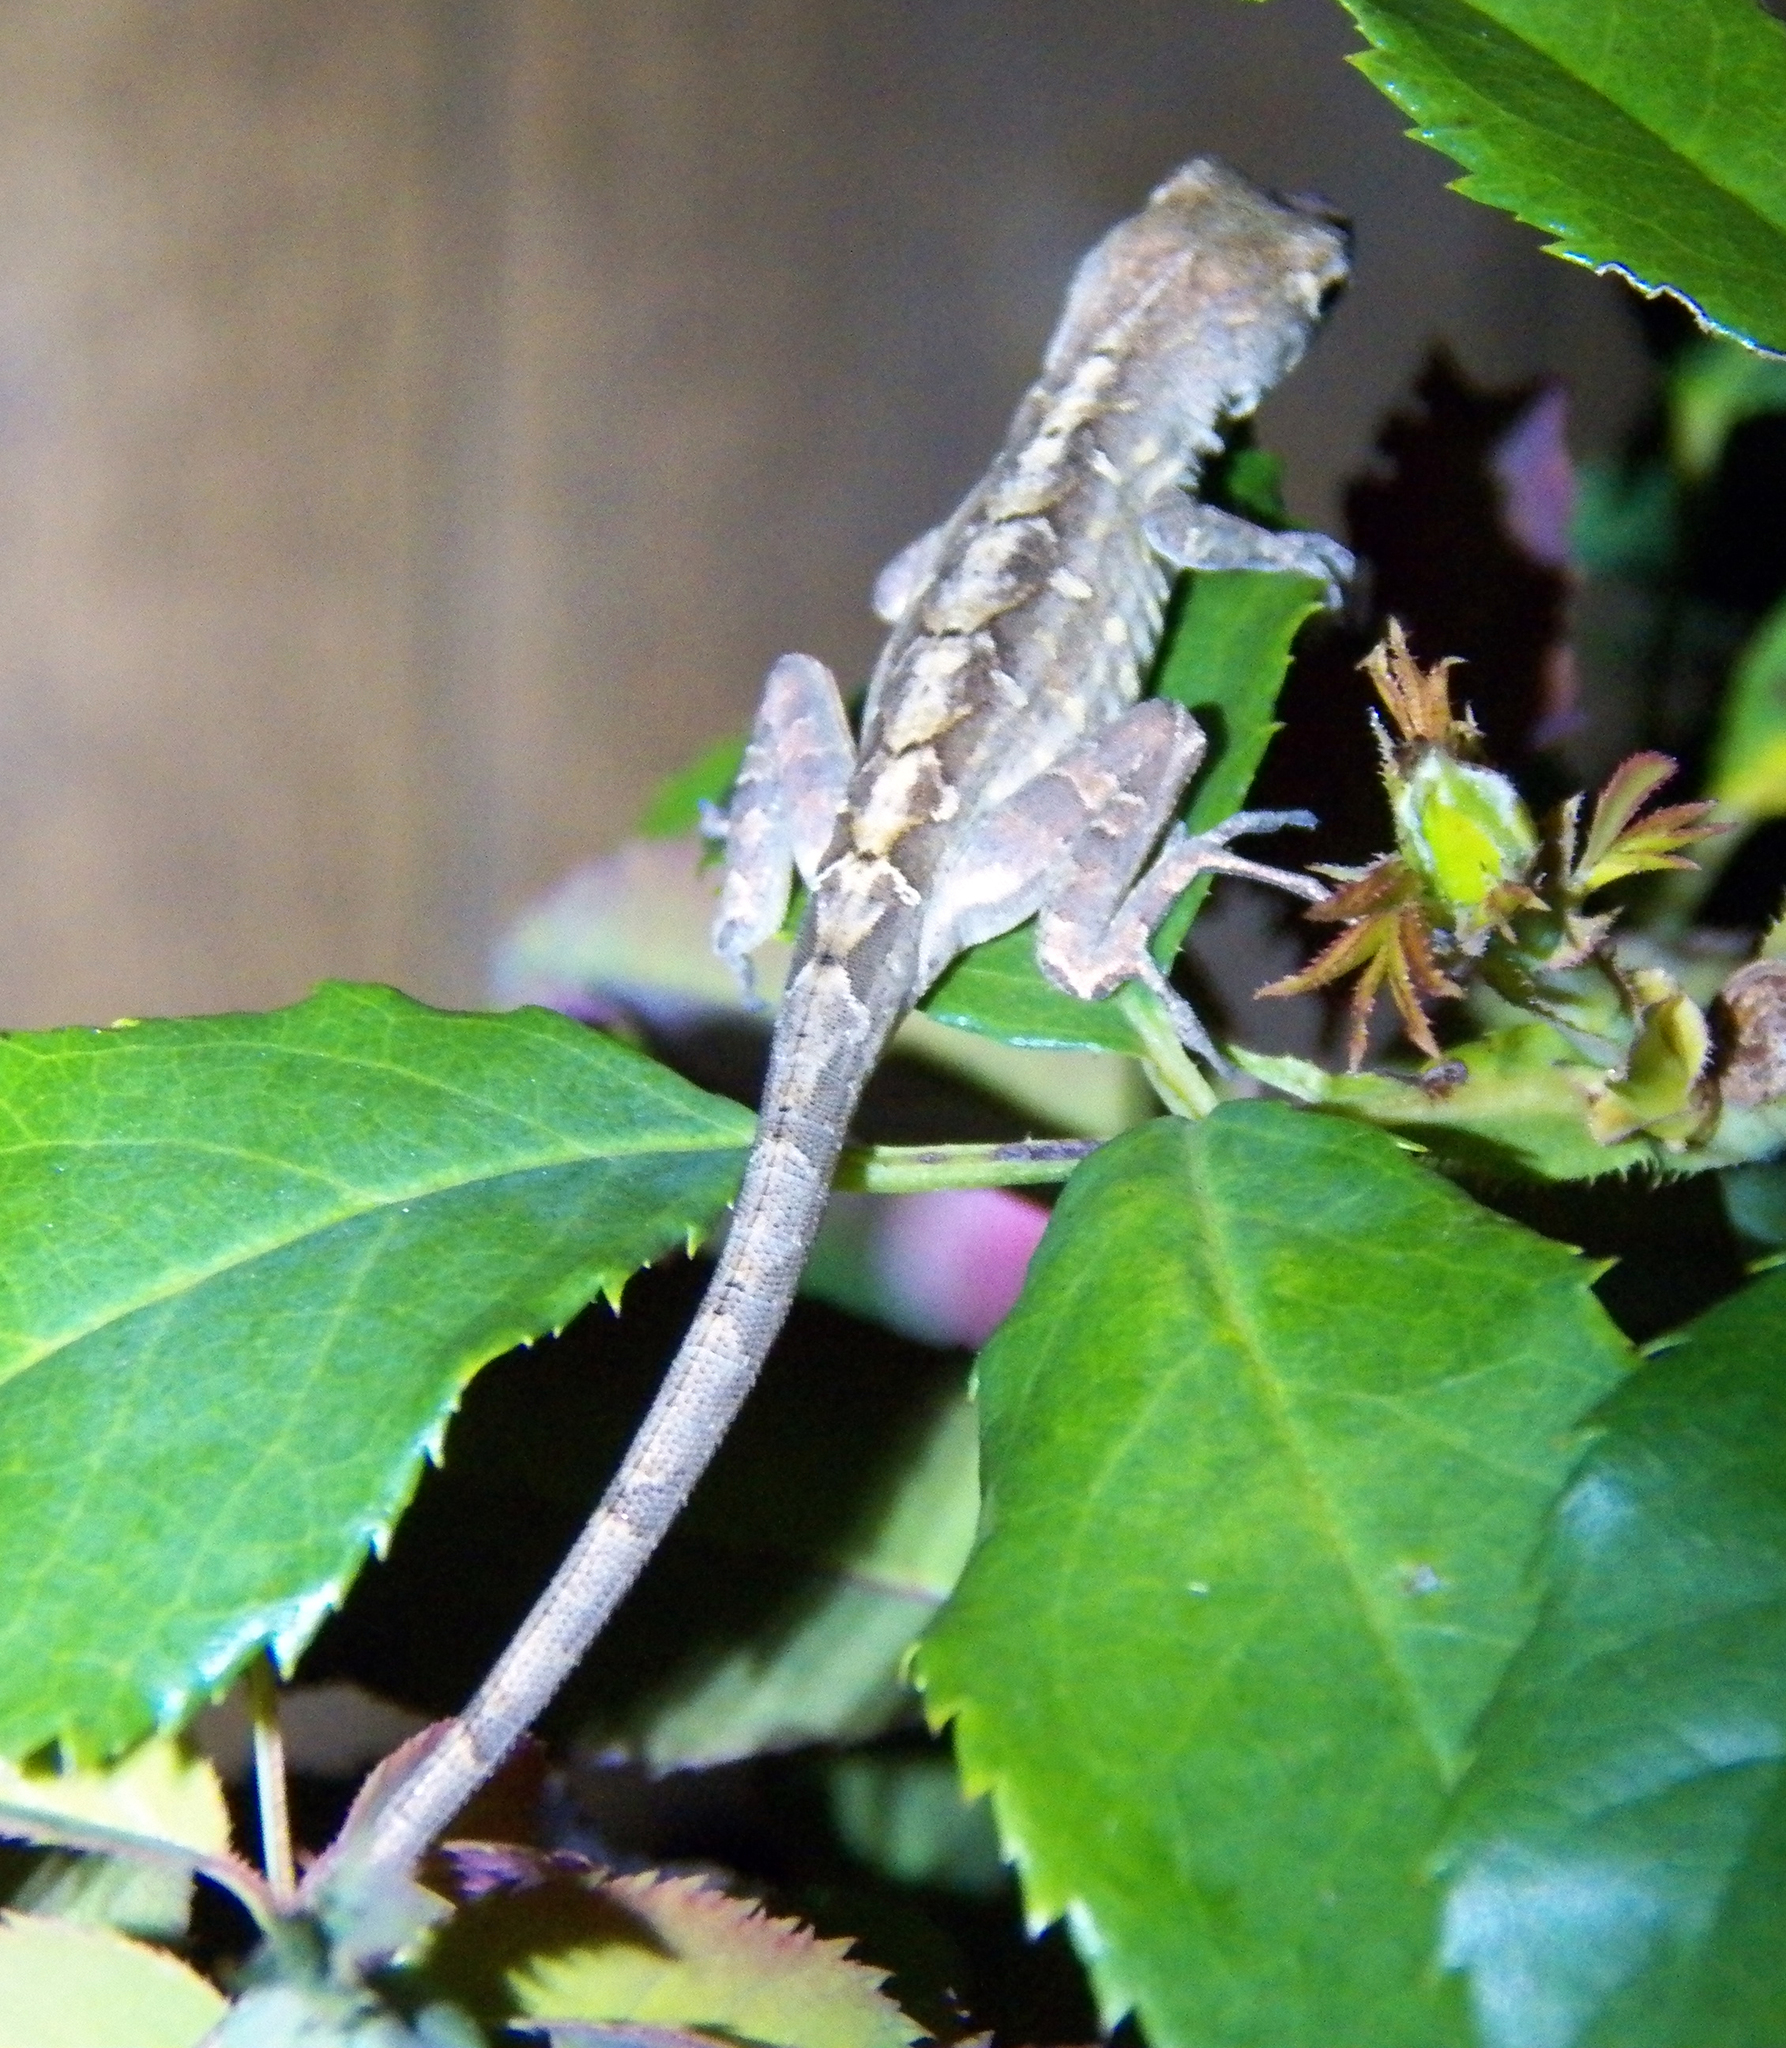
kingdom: Animalia
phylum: Chordata
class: Squamata
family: Dactyloidae
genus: Anolis
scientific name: Anolis sagrei
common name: Brown anole
